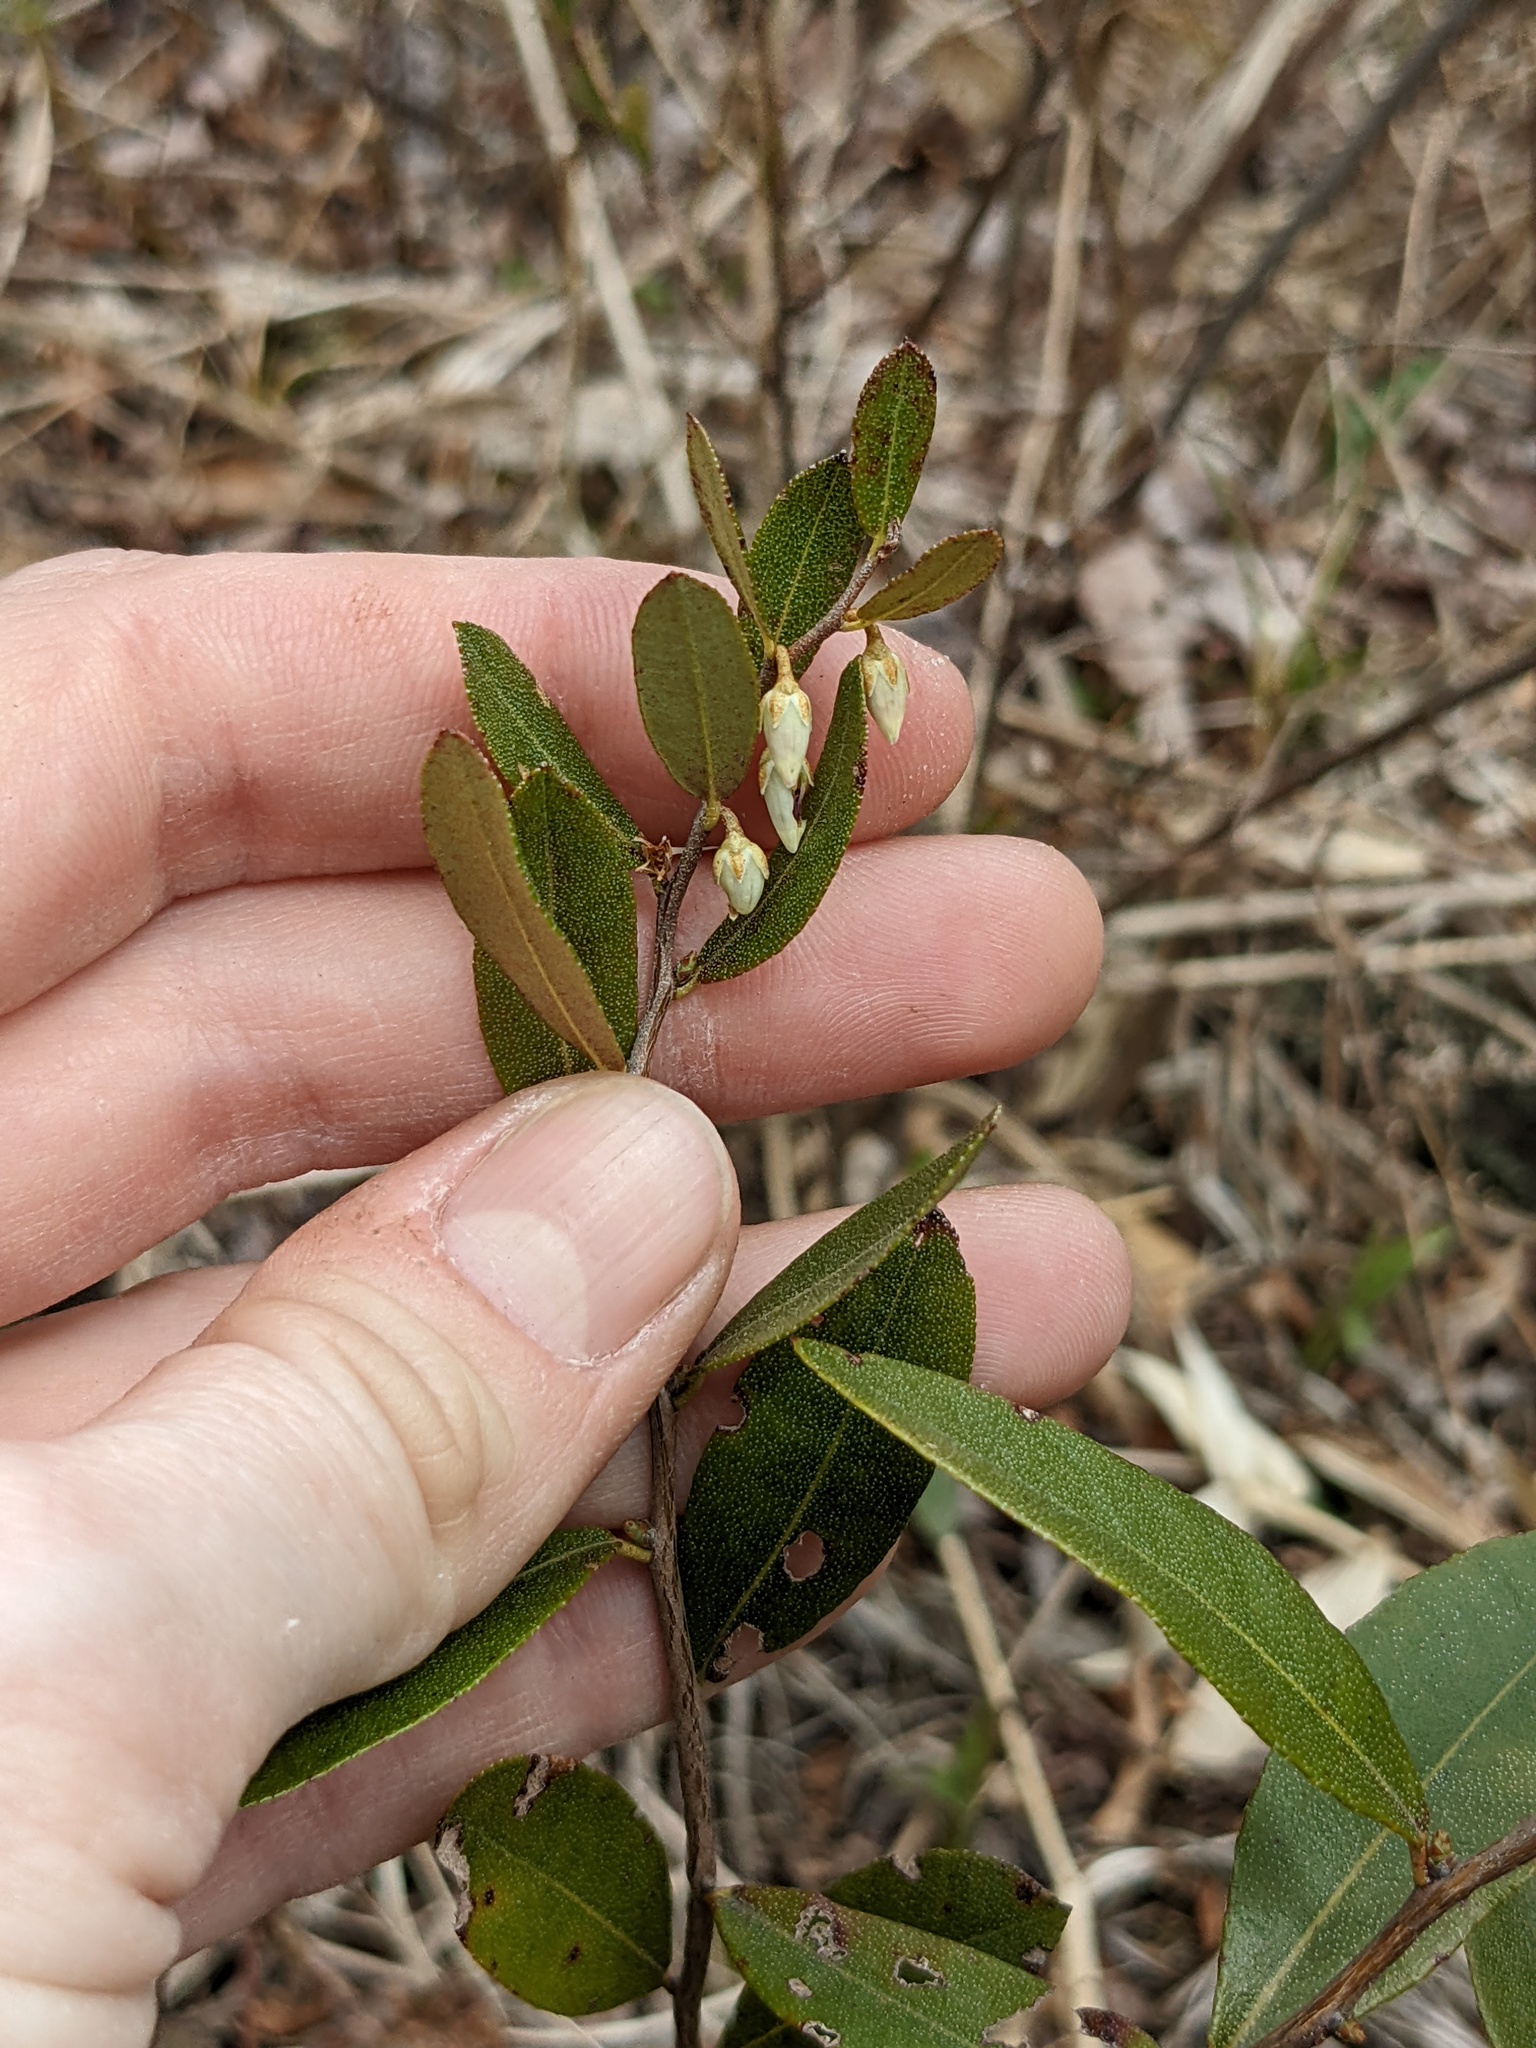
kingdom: Plantae
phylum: Tracheophyta
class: Magnoliopsida
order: Ericales
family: Ericaceae
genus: Chamaedaphne
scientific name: Chamaedaphne calyculata
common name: Leatherleaf
